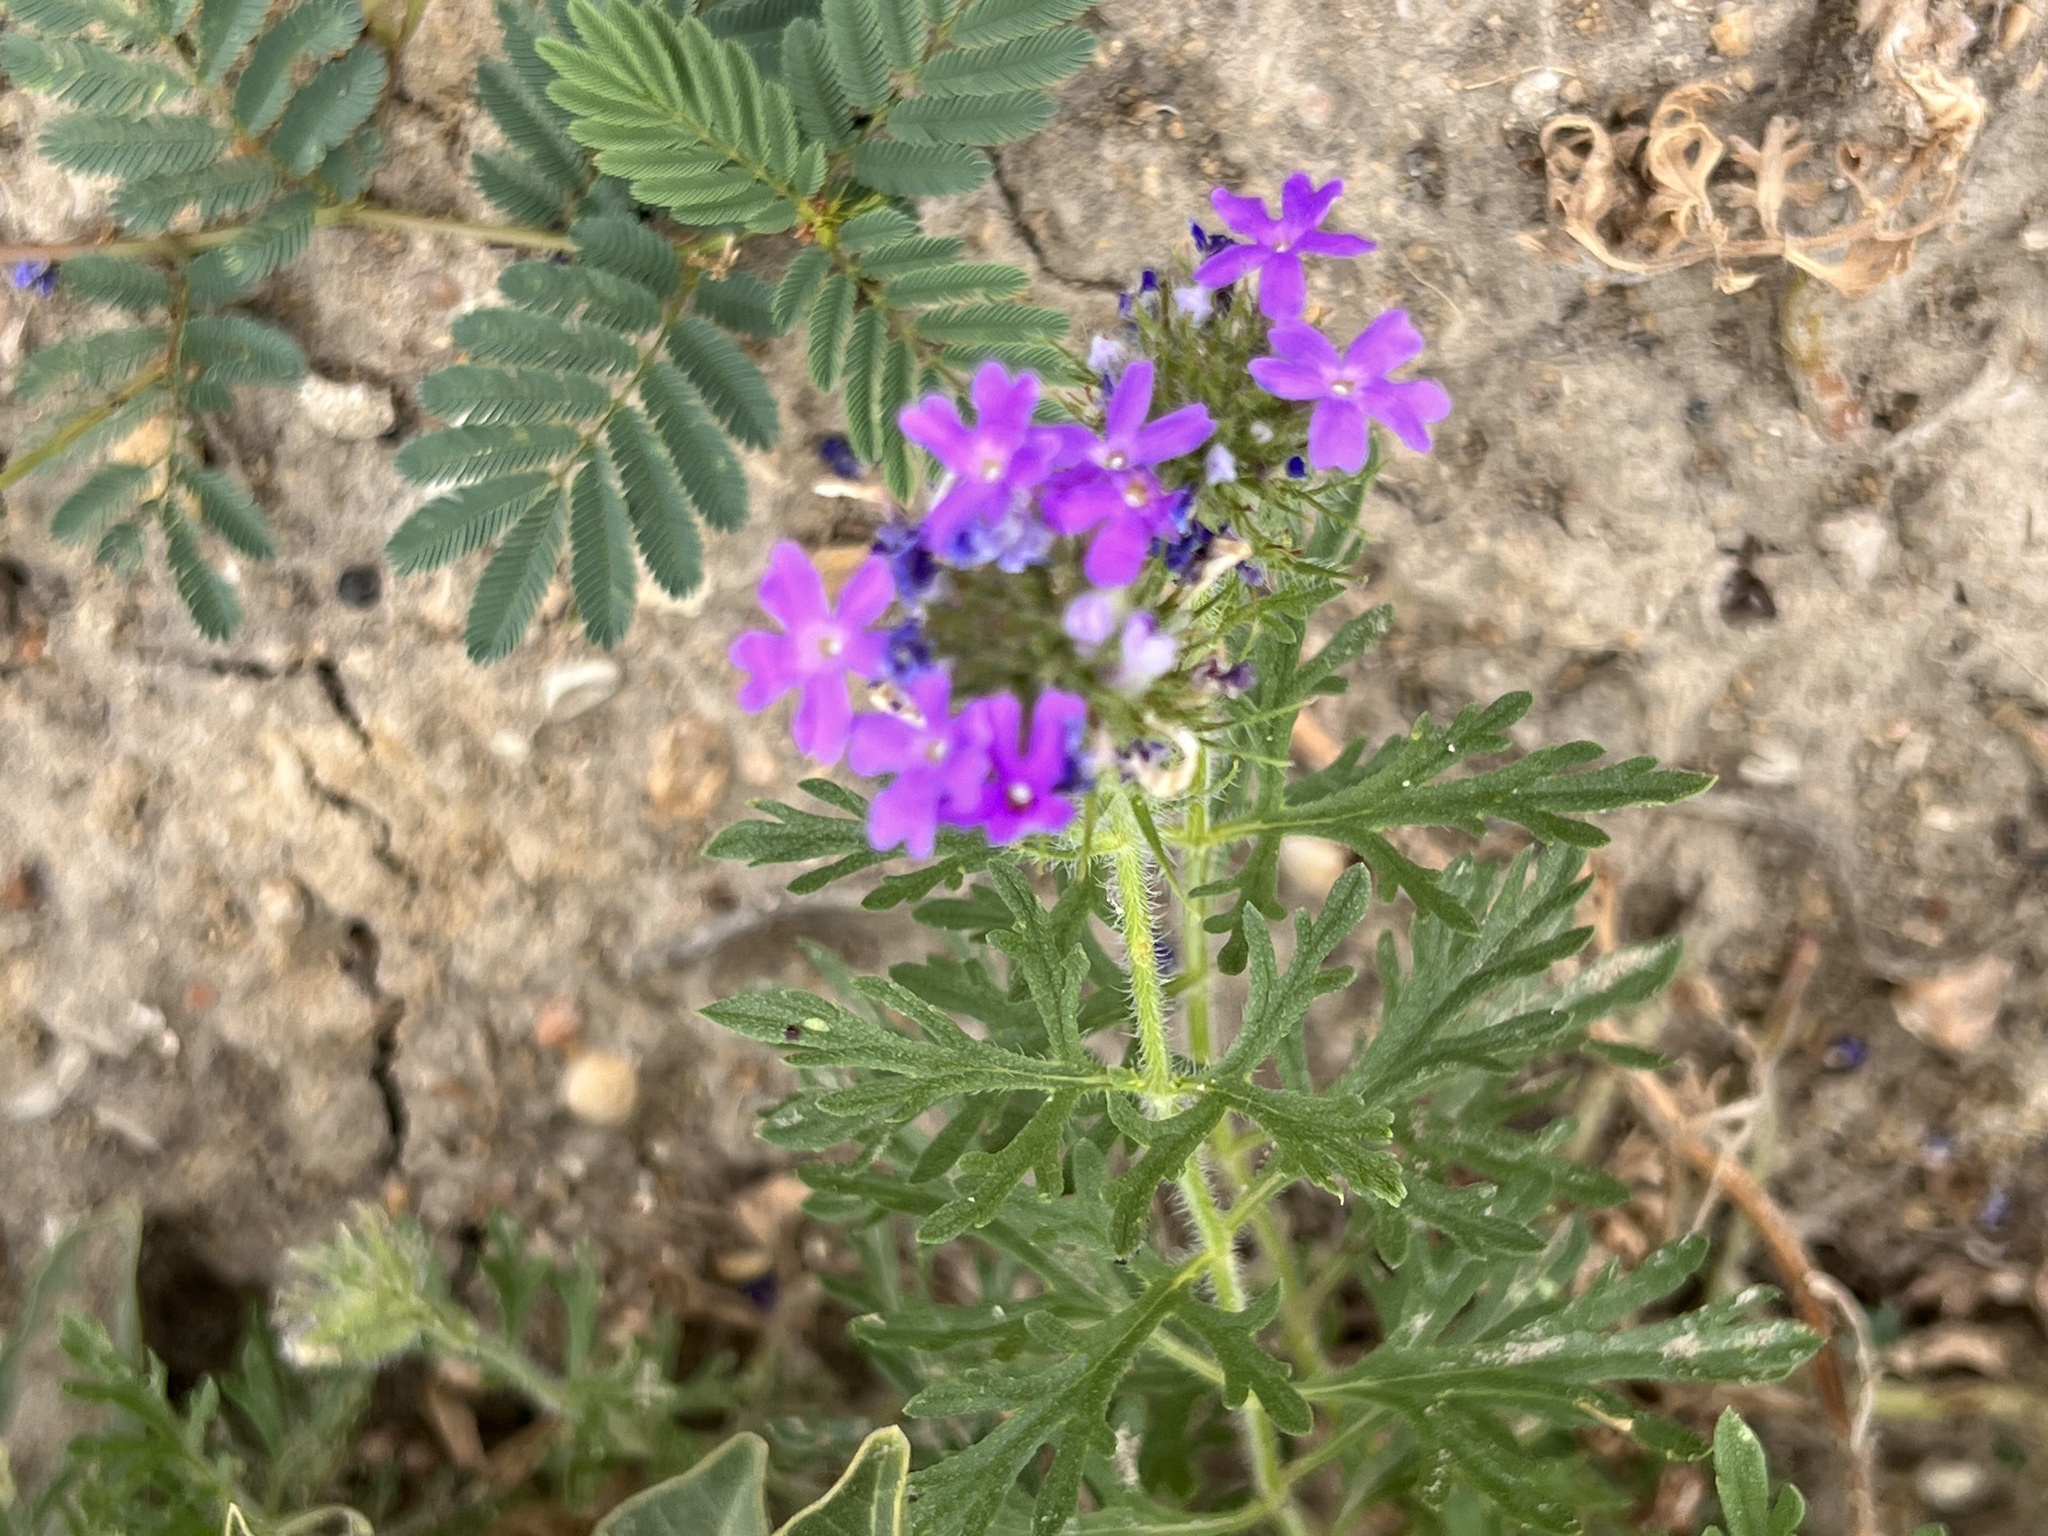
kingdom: Plantae
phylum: Tracheophyta
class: Magnoliopsida
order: Lamiales
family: Verbenaceae
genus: Verbena
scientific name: Verbena bipinnatifida
